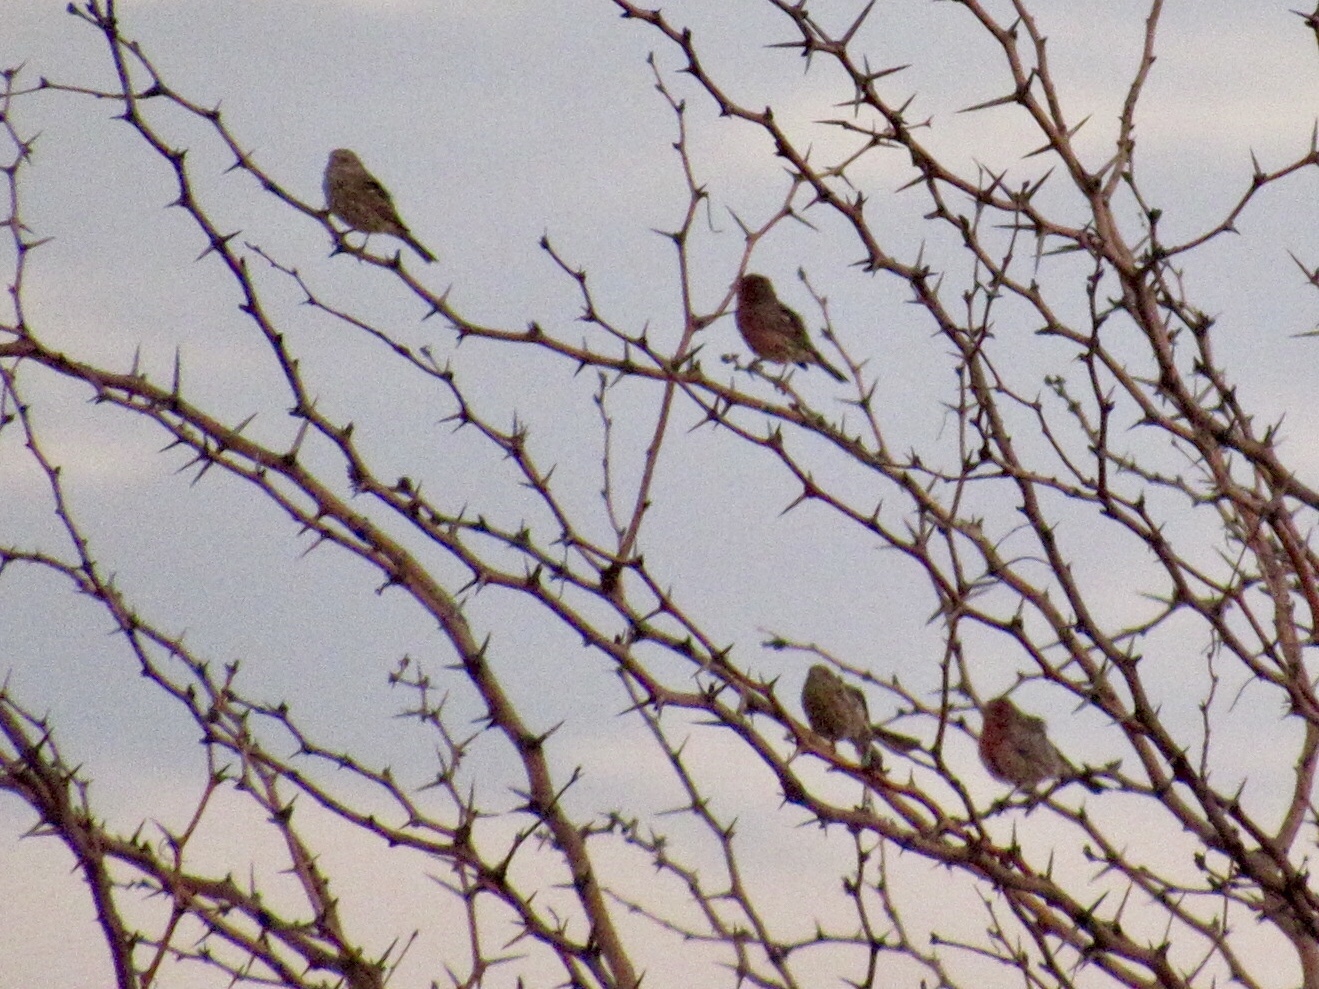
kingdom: Animalia
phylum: Chordata
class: Aves
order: Passeriformes
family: Fringillidae
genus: Haemorhous
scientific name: Haemorhous mexicanus
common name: House finch
